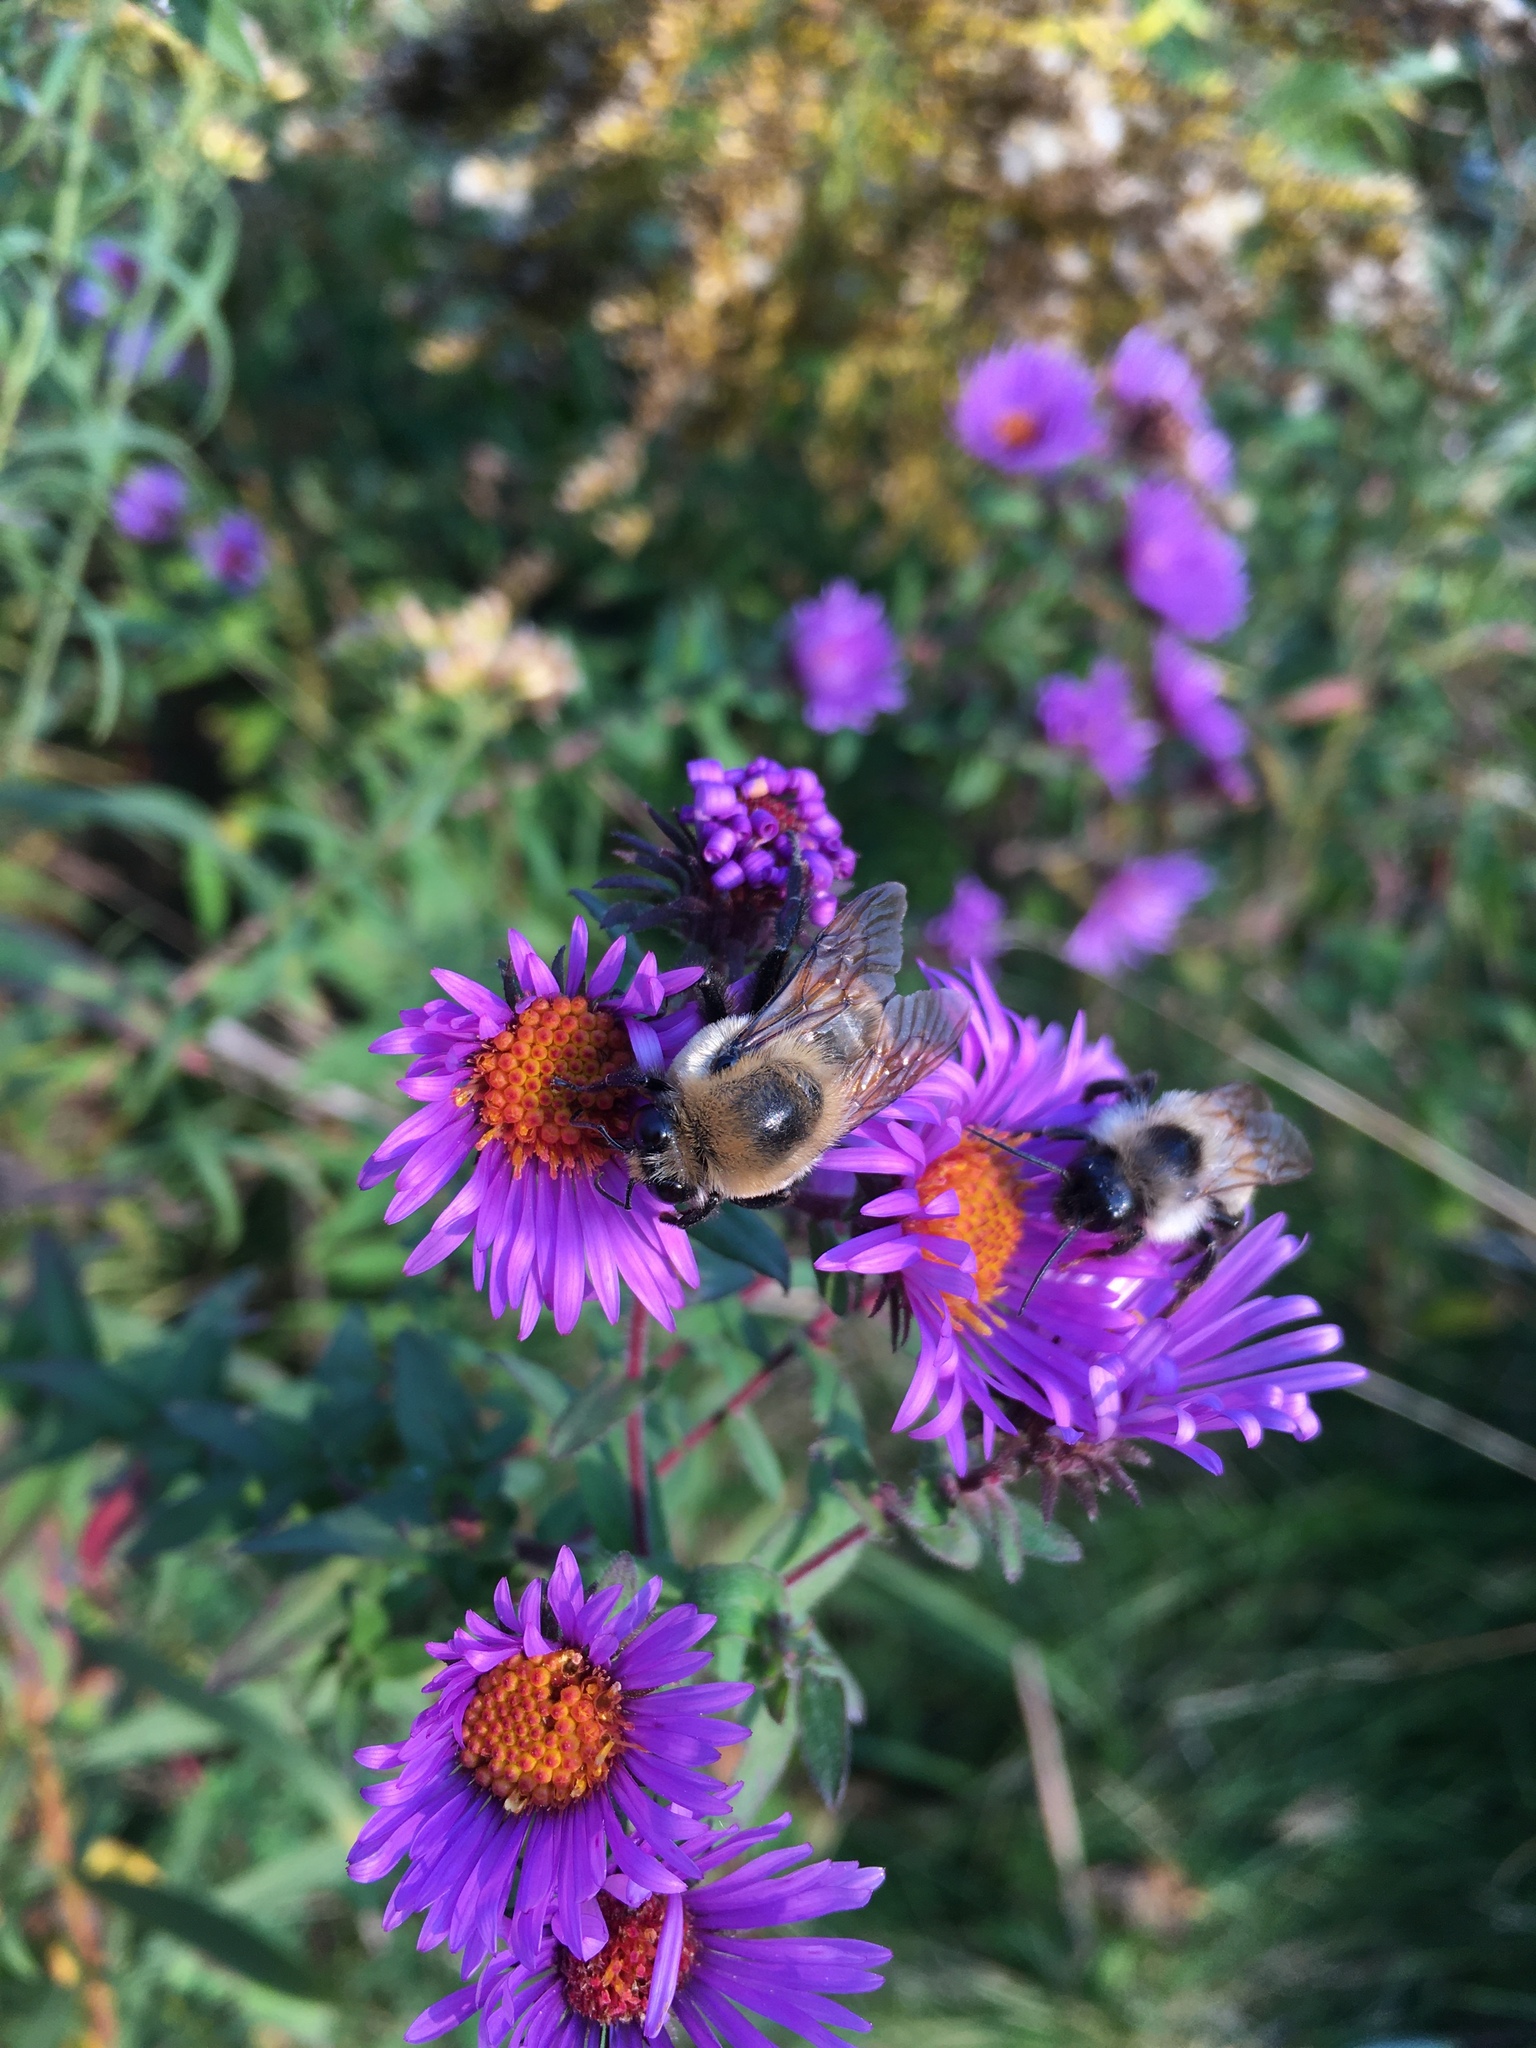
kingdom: Animalia
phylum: Arthropoda
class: Insecta
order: Hymenoptera
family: Apidae
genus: Bombus
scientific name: Bombus griseocollis
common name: Brown-belted bumble bee
